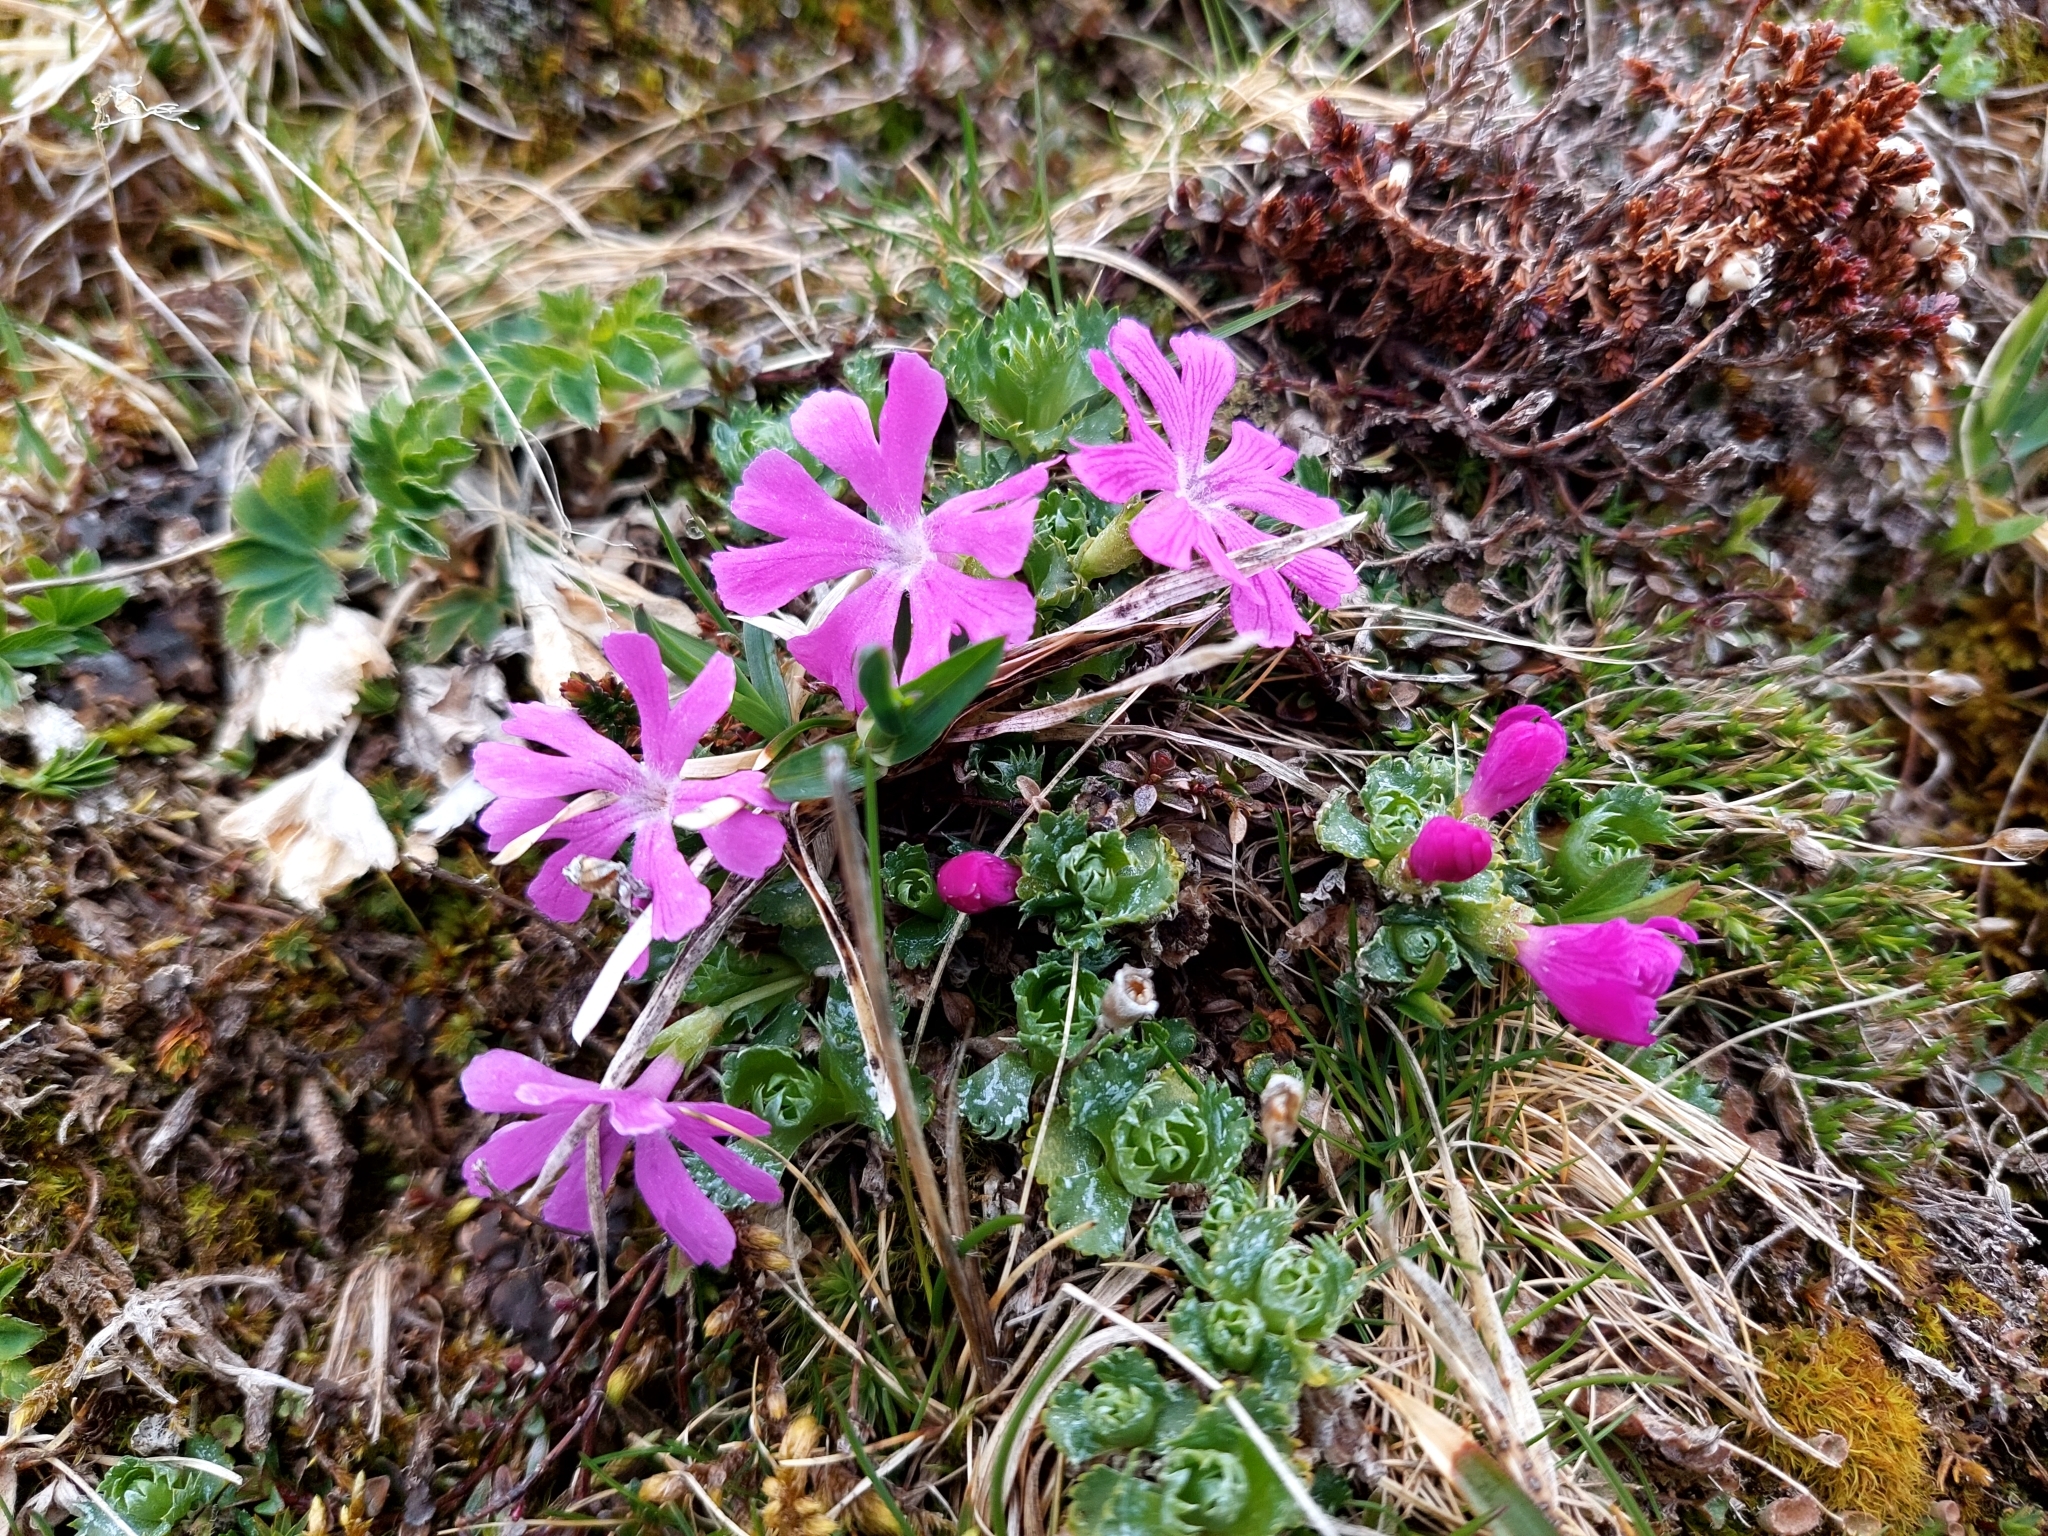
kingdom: Plantae
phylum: Tracheophyta
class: Magnoliopsida
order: Ericales
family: Primulaceae
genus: Primula
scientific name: Primula minima
